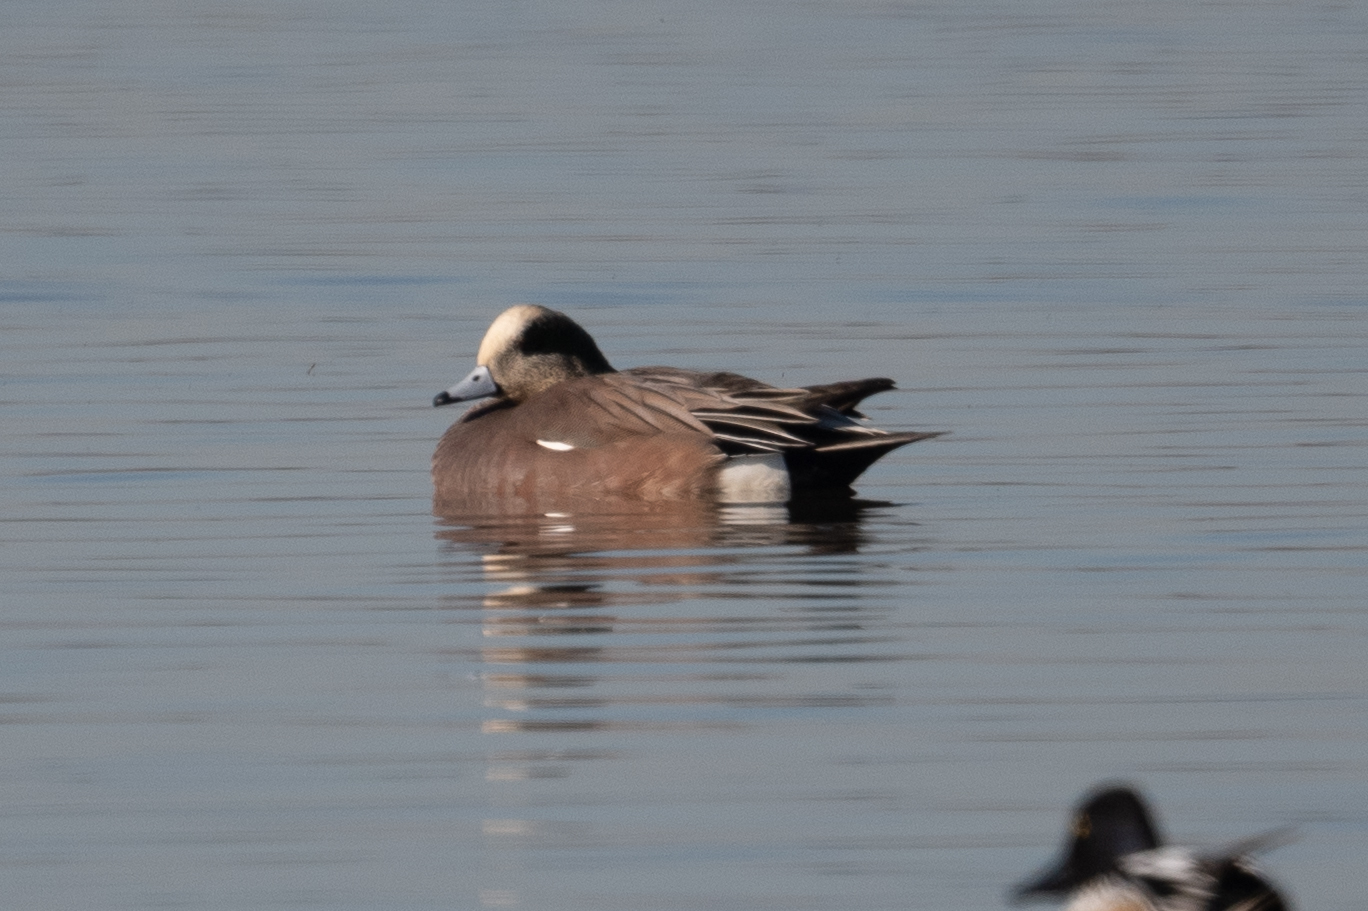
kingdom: Animalia
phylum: Chordata
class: Aves
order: Anseriformes
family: Anatidae
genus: Mareca
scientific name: Mareca americana
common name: American wigeon
